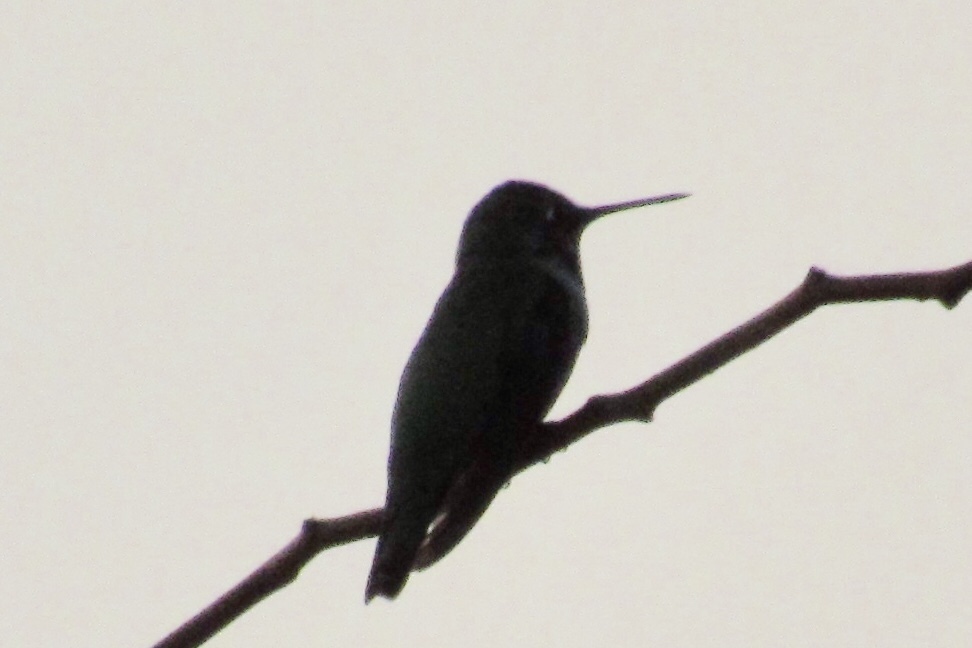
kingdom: Animalia
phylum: Chordata
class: Aves
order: Apodiformes
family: Trochilidae
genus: Calypte
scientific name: Calypte anna
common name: Anna's hummingbird
